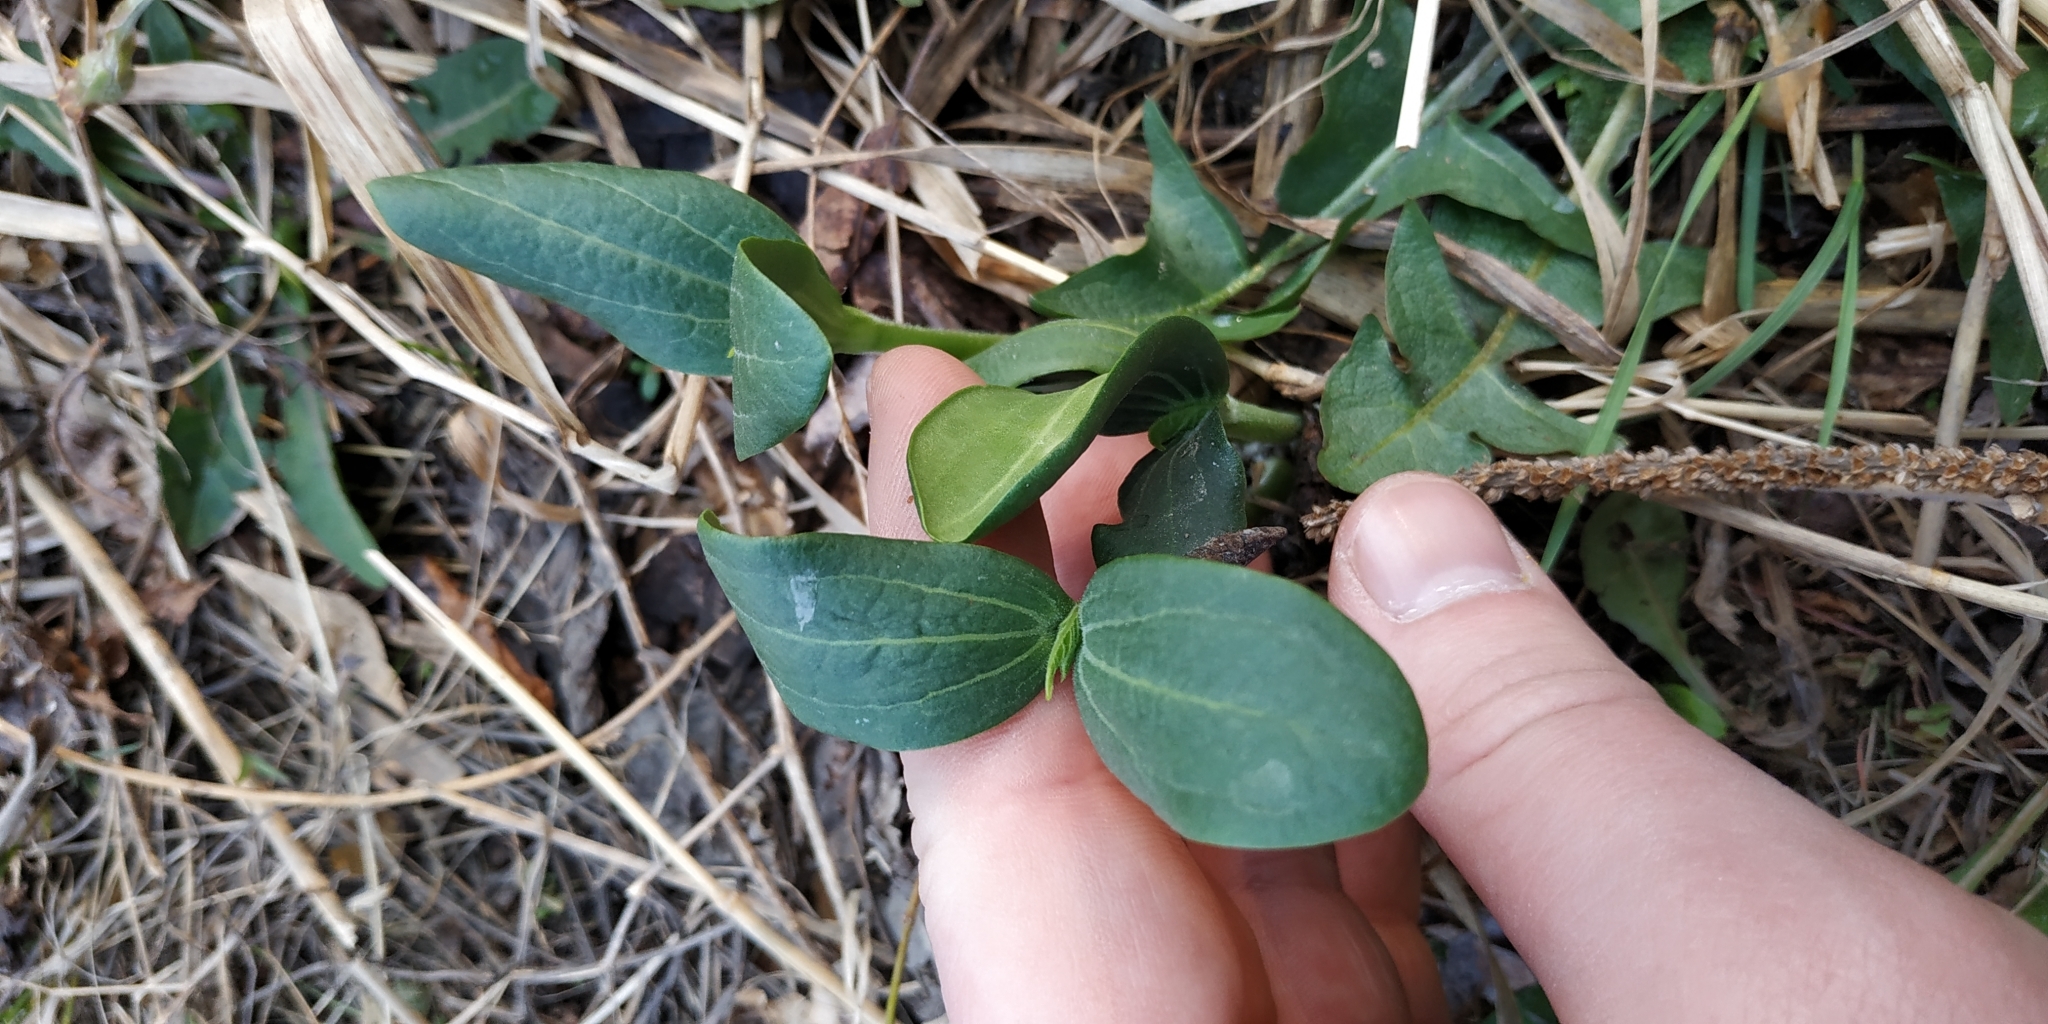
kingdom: Plantae
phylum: Tracheophyta
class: Magnoliopsida
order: Cucurbitales
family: Cucurbitaceae
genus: Echinocystis
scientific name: Echinocystis lobata
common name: Wild cucumber
